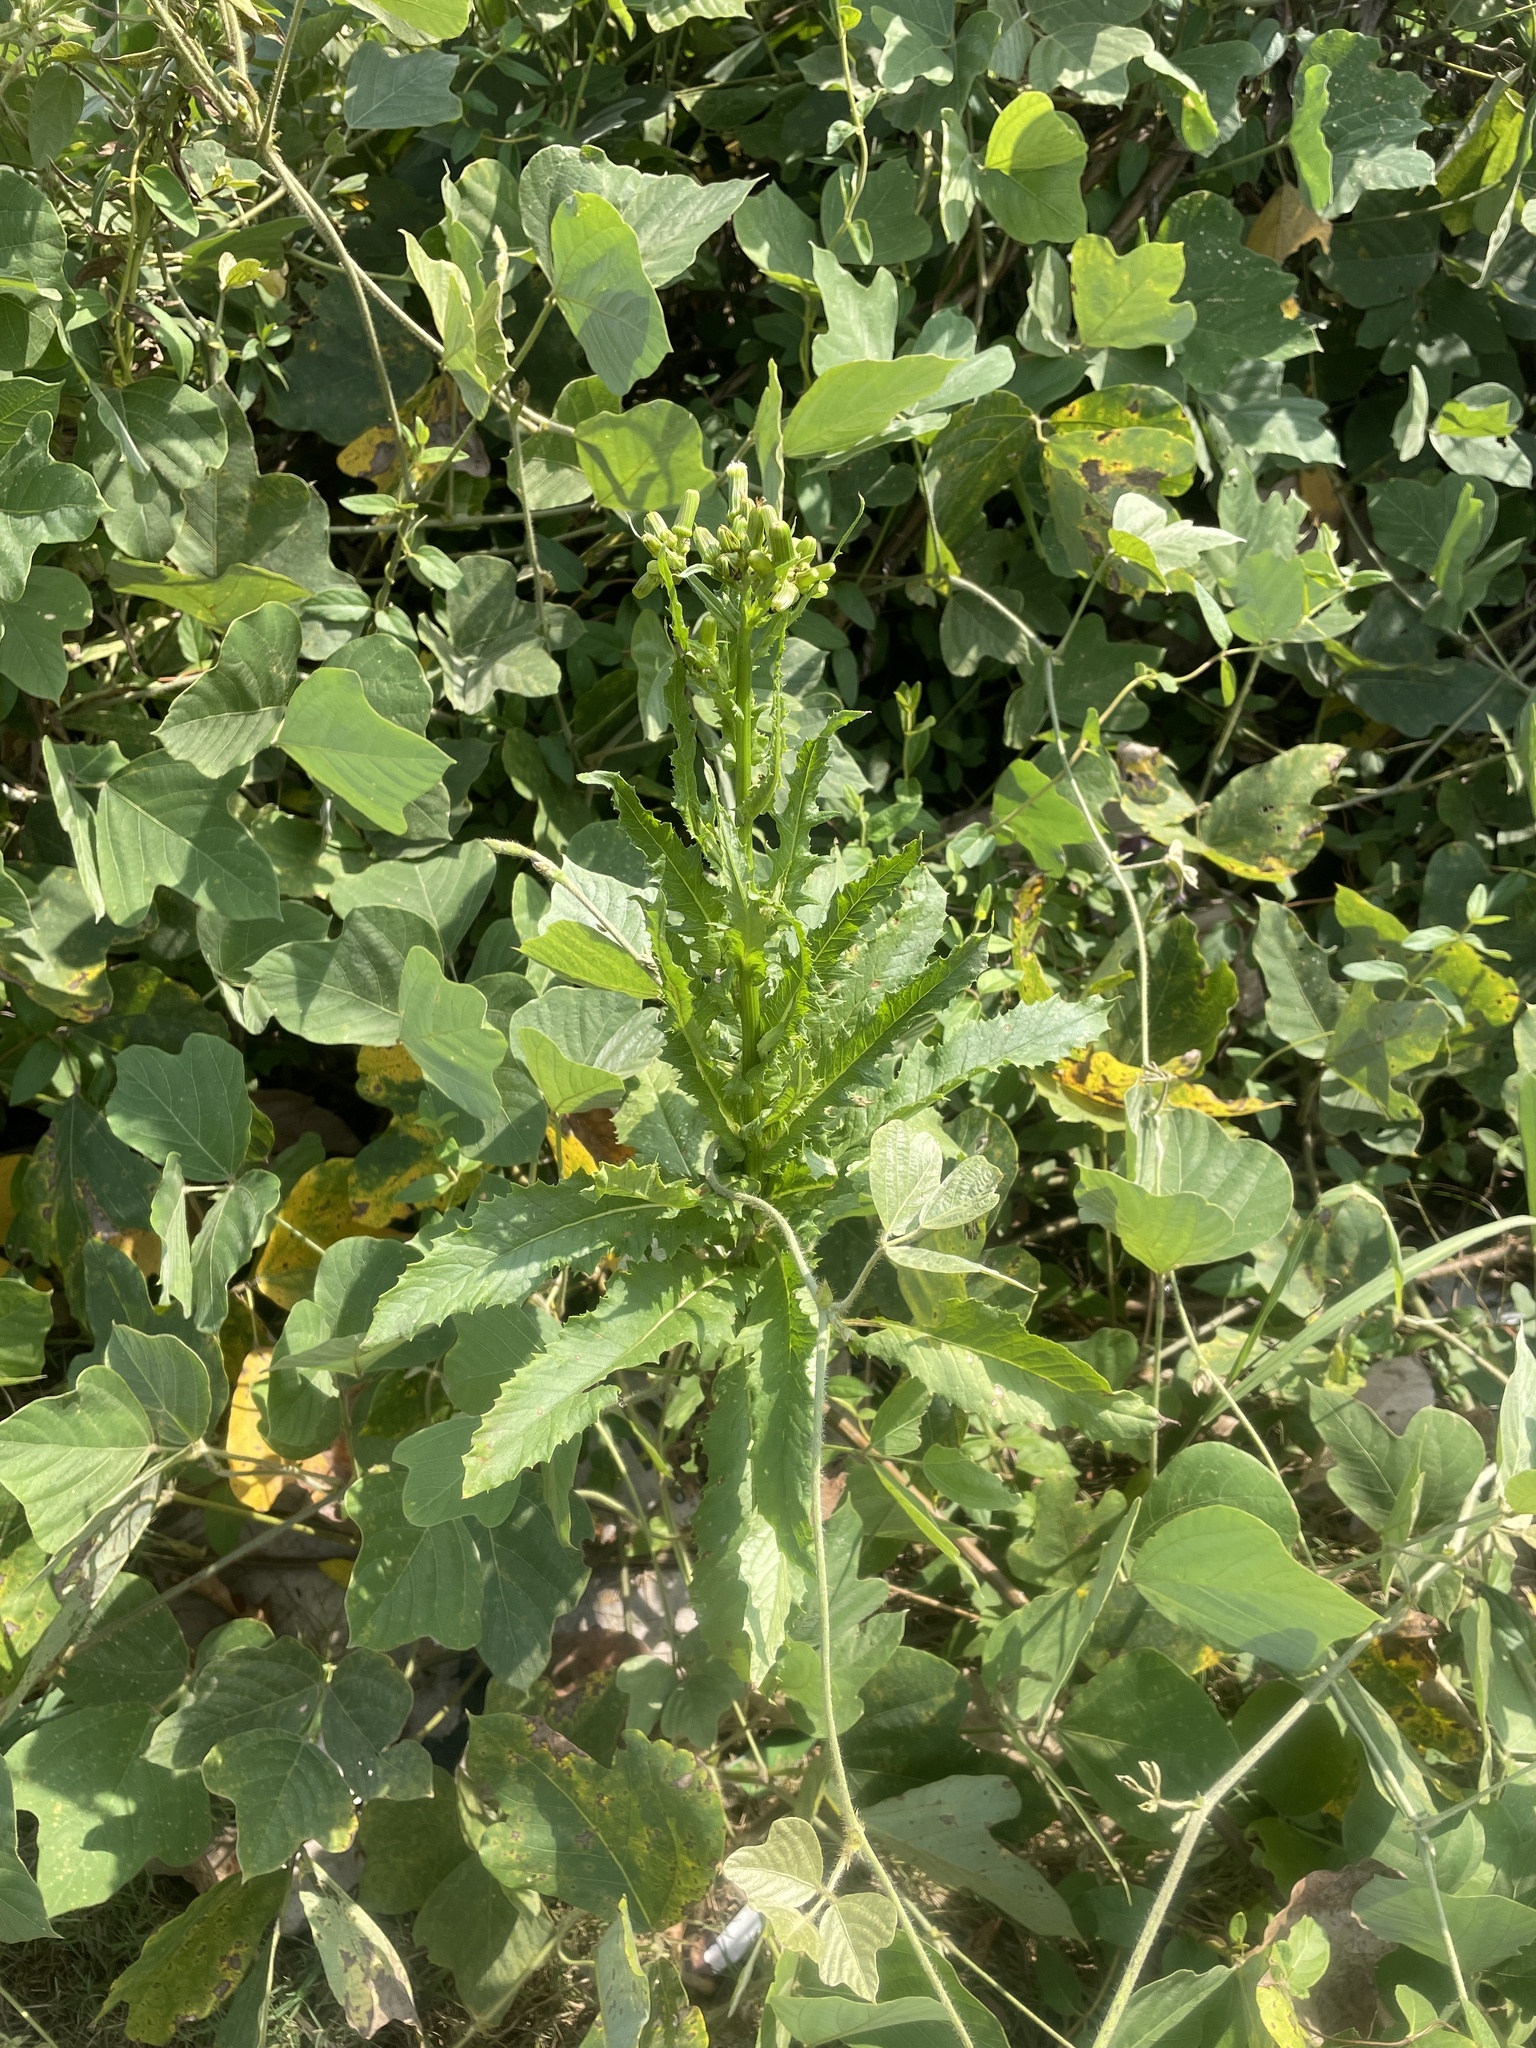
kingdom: Plantae
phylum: Tracheophyta
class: Magnoliopsida
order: Asterales
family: Asteraceae
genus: Erechtites
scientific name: Erechtites hieraciifolius
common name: American burnweed
